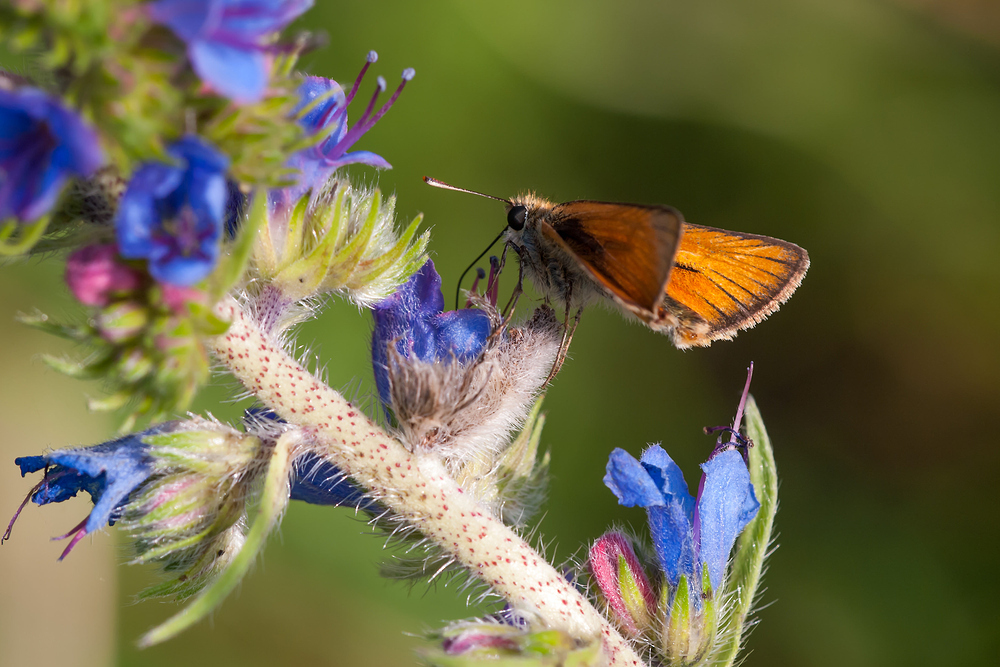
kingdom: Animalia
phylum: Arthropoda
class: Insecta
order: Lepidoptera
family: Hesperiidae
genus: Thymelicus
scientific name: Thymelicus sylvestris
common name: Small skipper
